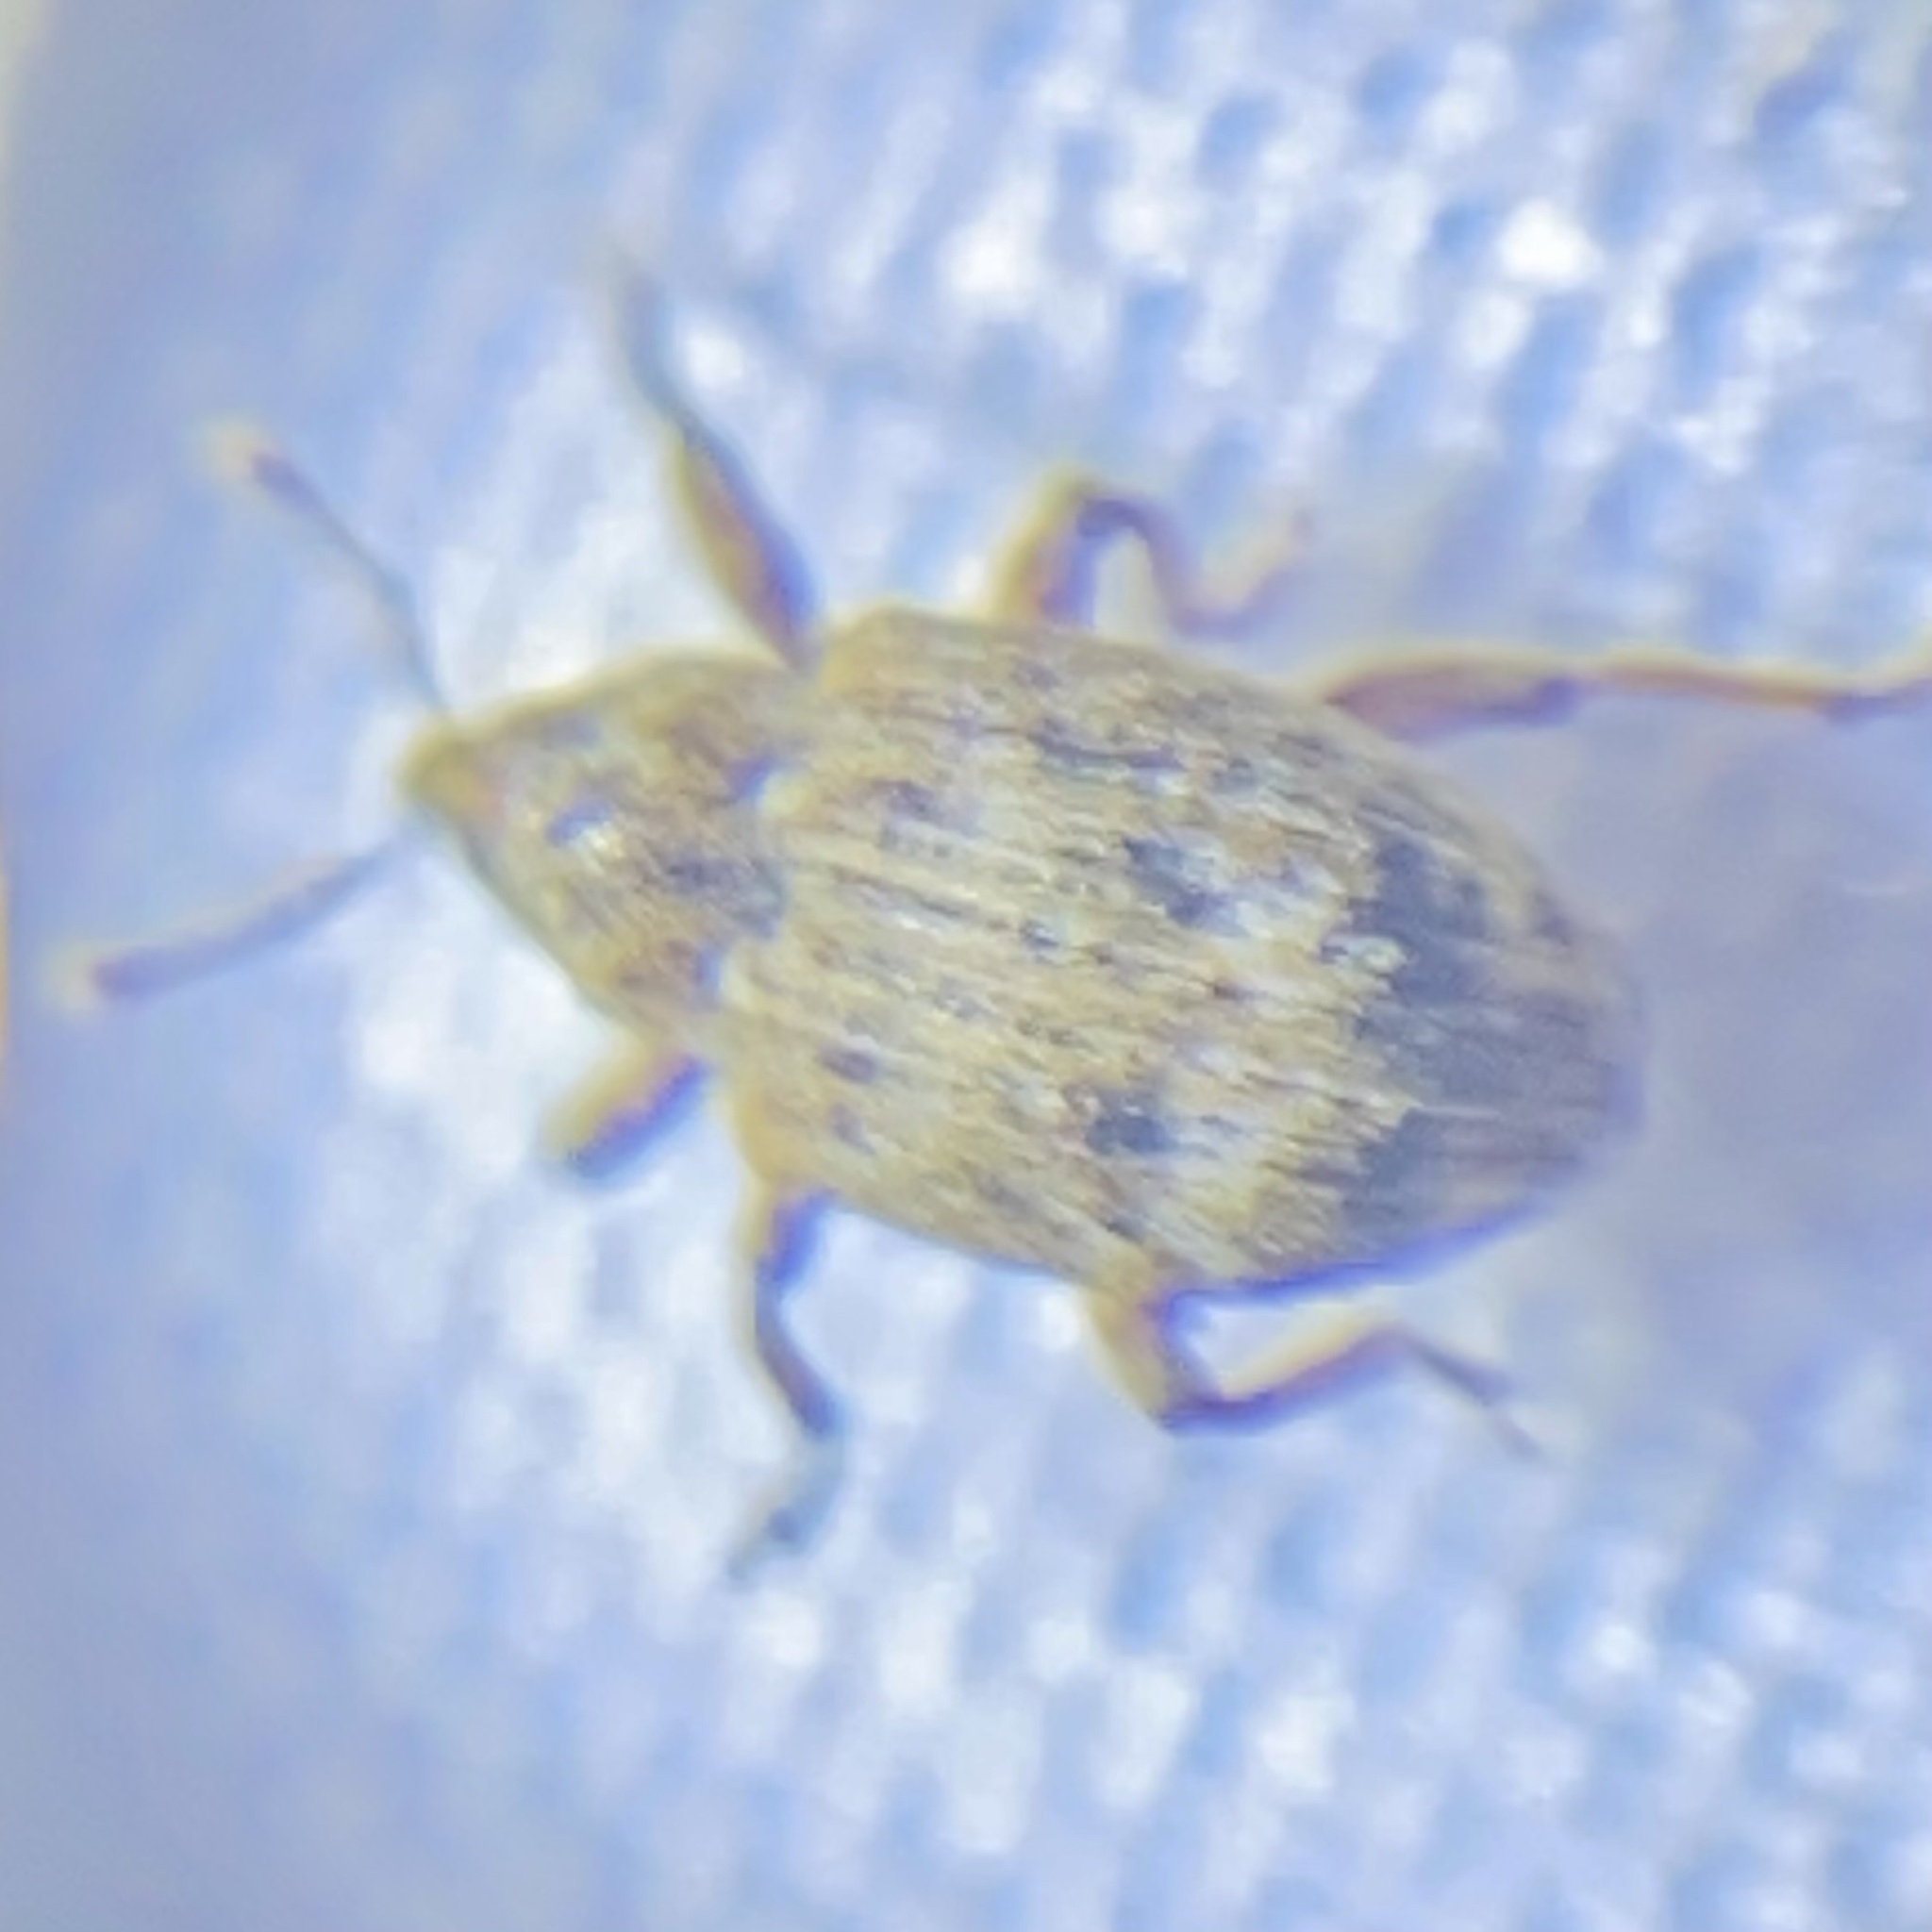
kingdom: Animalia
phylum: Arthropoda
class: Insecta
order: Coleoptera
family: Curculionidae
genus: Conotrachelus
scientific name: Conotrachelus recessus
